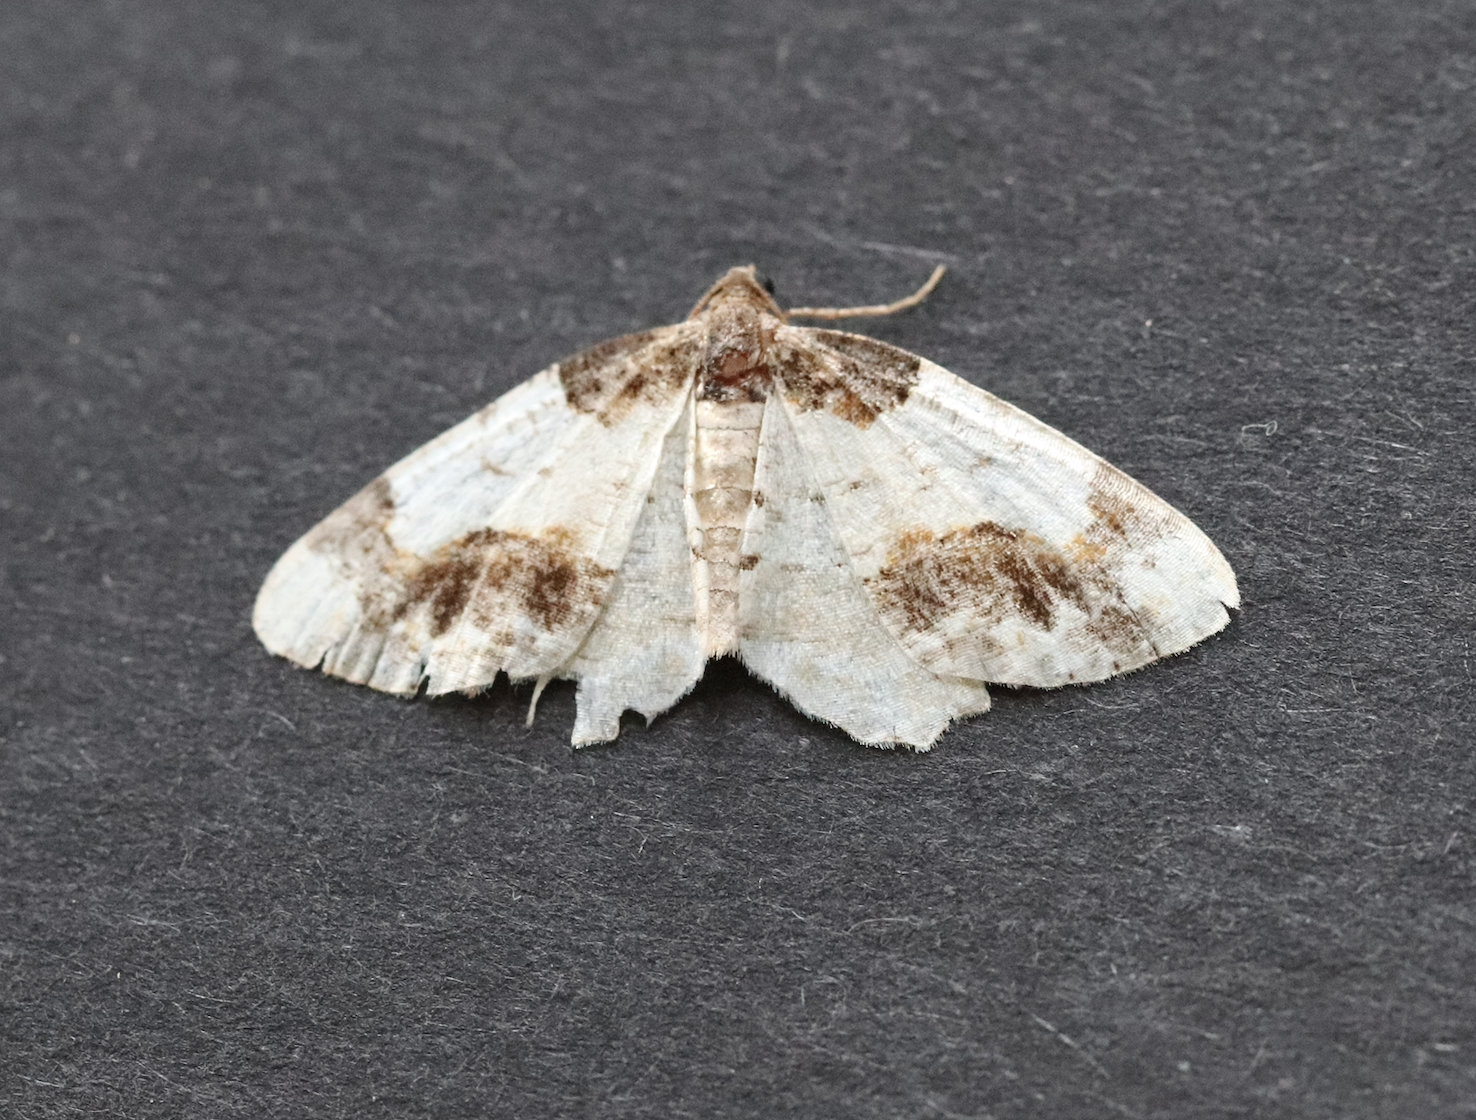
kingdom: Animalia
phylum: Arthropoda
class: Insecta
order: Lepidoptera
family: Geometridae
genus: Ligdia
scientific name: Ligdia adustata
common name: Scorched carpet
